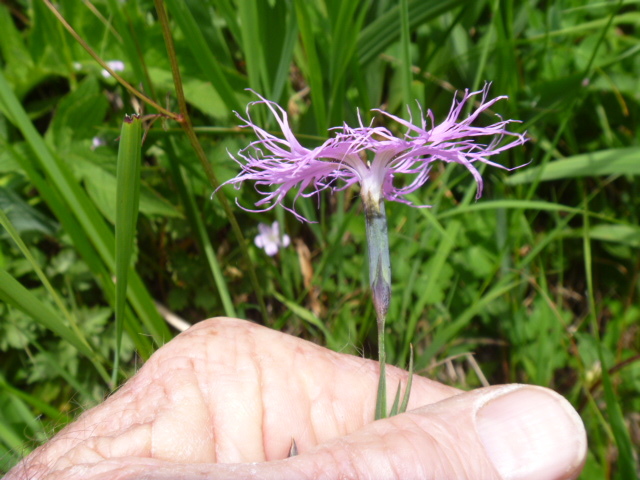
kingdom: Plantae
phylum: Tracheophyta
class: Magnoliopsida
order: Caryophyllales
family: Caryophyllaceae
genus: Dianthus
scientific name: Dianthus longicalyx
